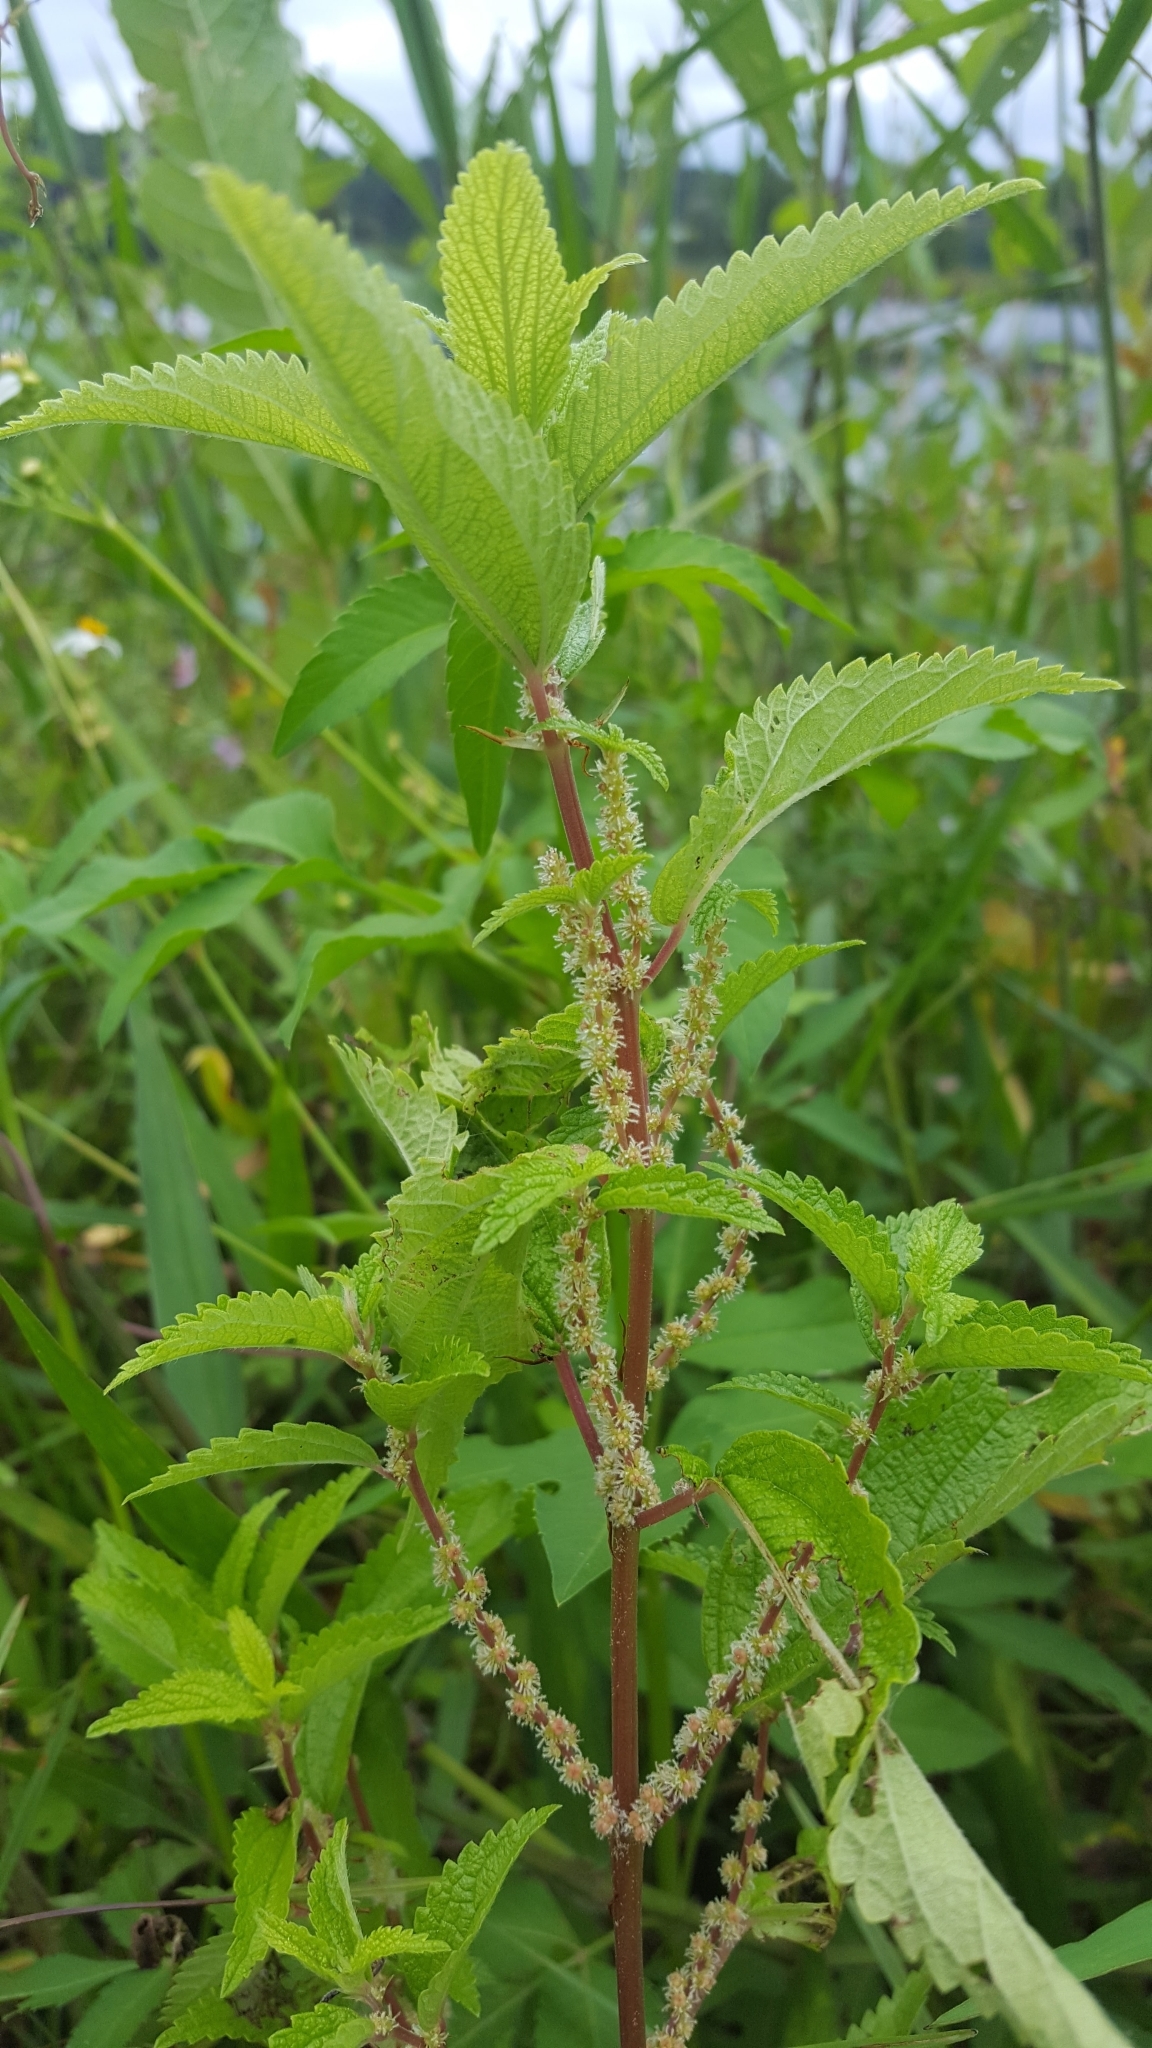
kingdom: Plantae
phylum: Tracheophyta
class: Magnoliopsida
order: Rosales
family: Urticaceae
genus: Boehmeria
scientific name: Boehmeria cylindrica
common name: Bog-hemp
